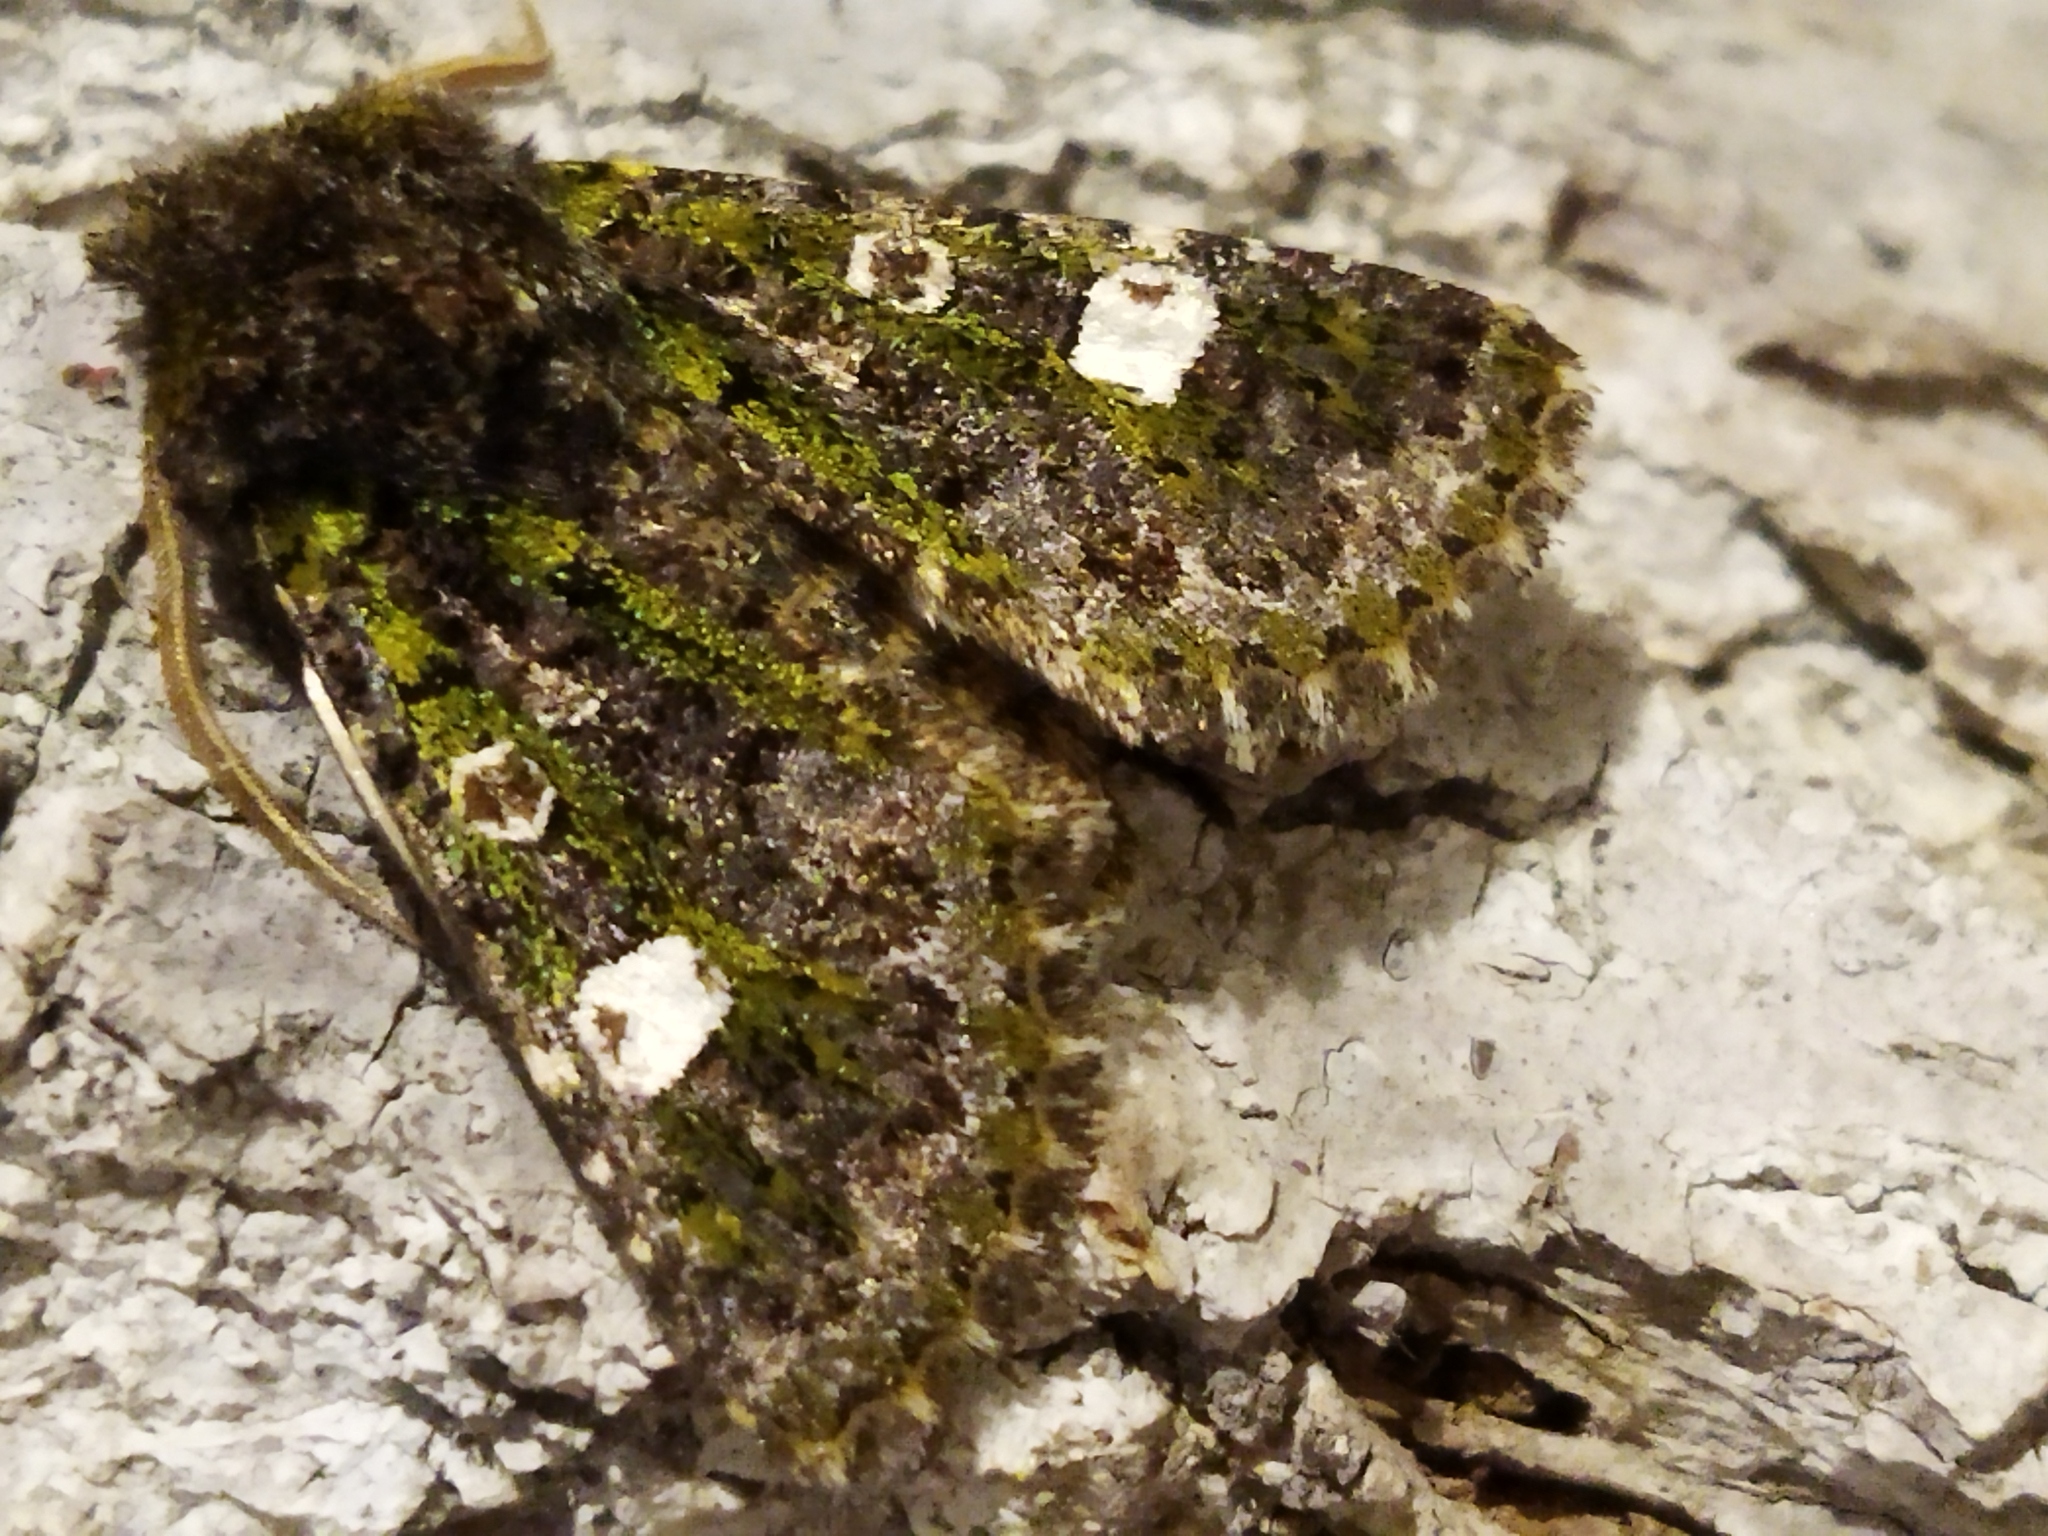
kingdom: Animalia
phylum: Arthropoda
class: Insecta
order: Lepidoptera
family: Noctuidae
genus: Valeria
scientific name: Valeria oleagina
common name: Green-brindled dot
